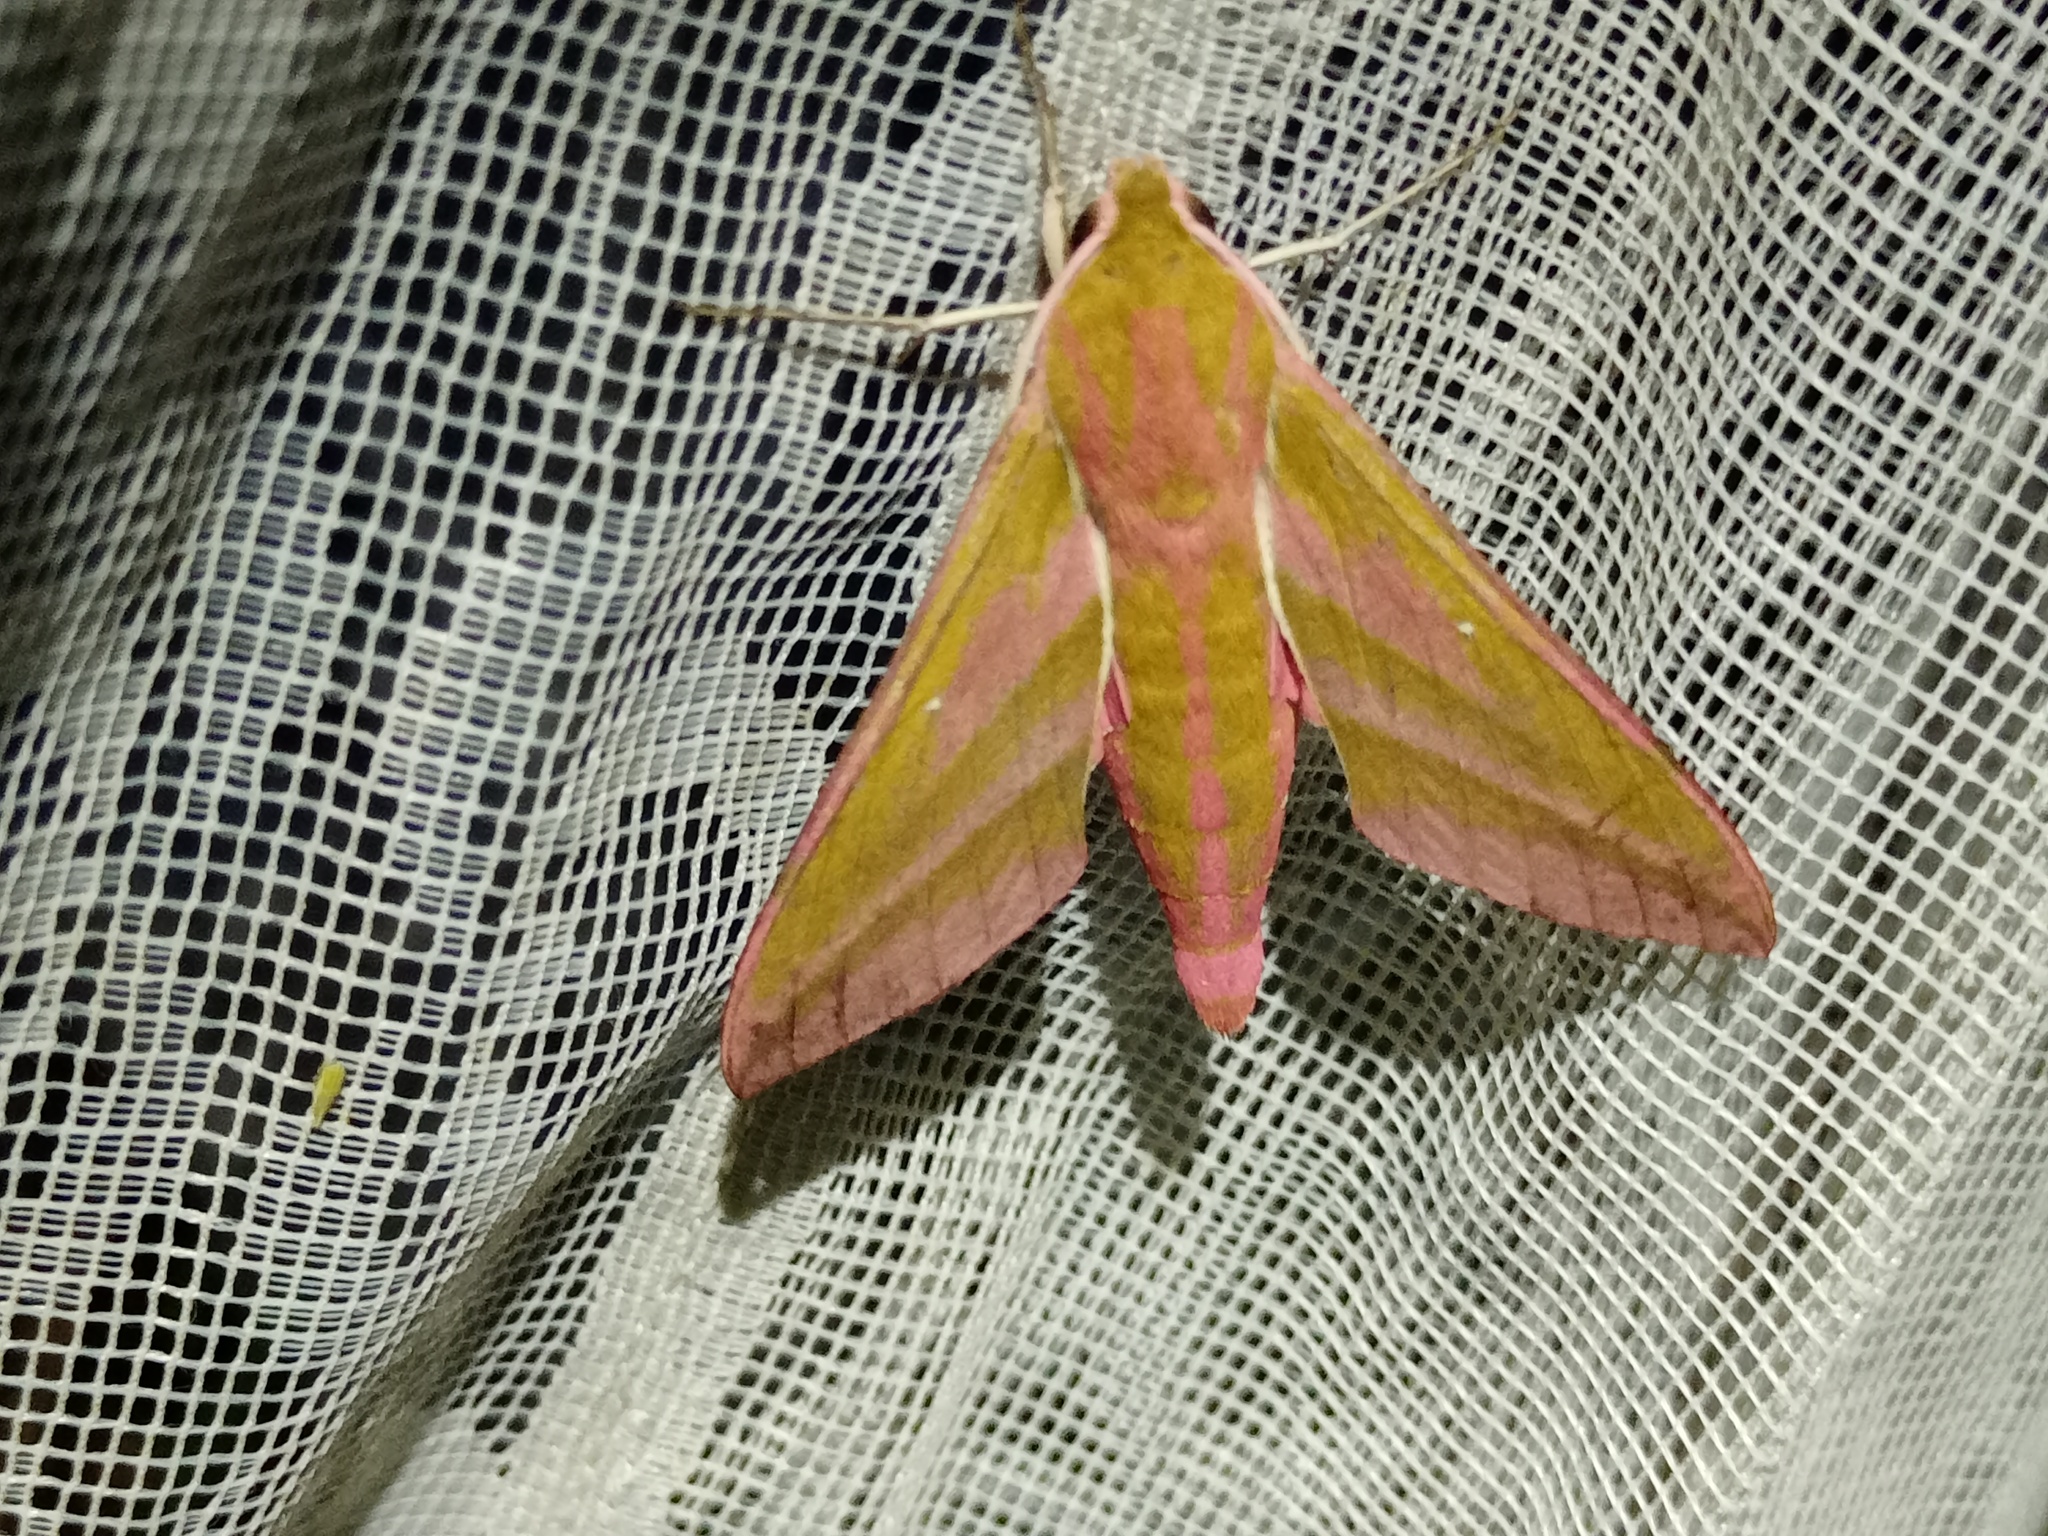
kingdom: Animalia
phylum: Arthropoda
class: Insecta
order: Lepidoptera
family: Sphingidae
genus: Deilephila
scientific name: Deilephila elpenor
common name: Elephant hawk-moth
